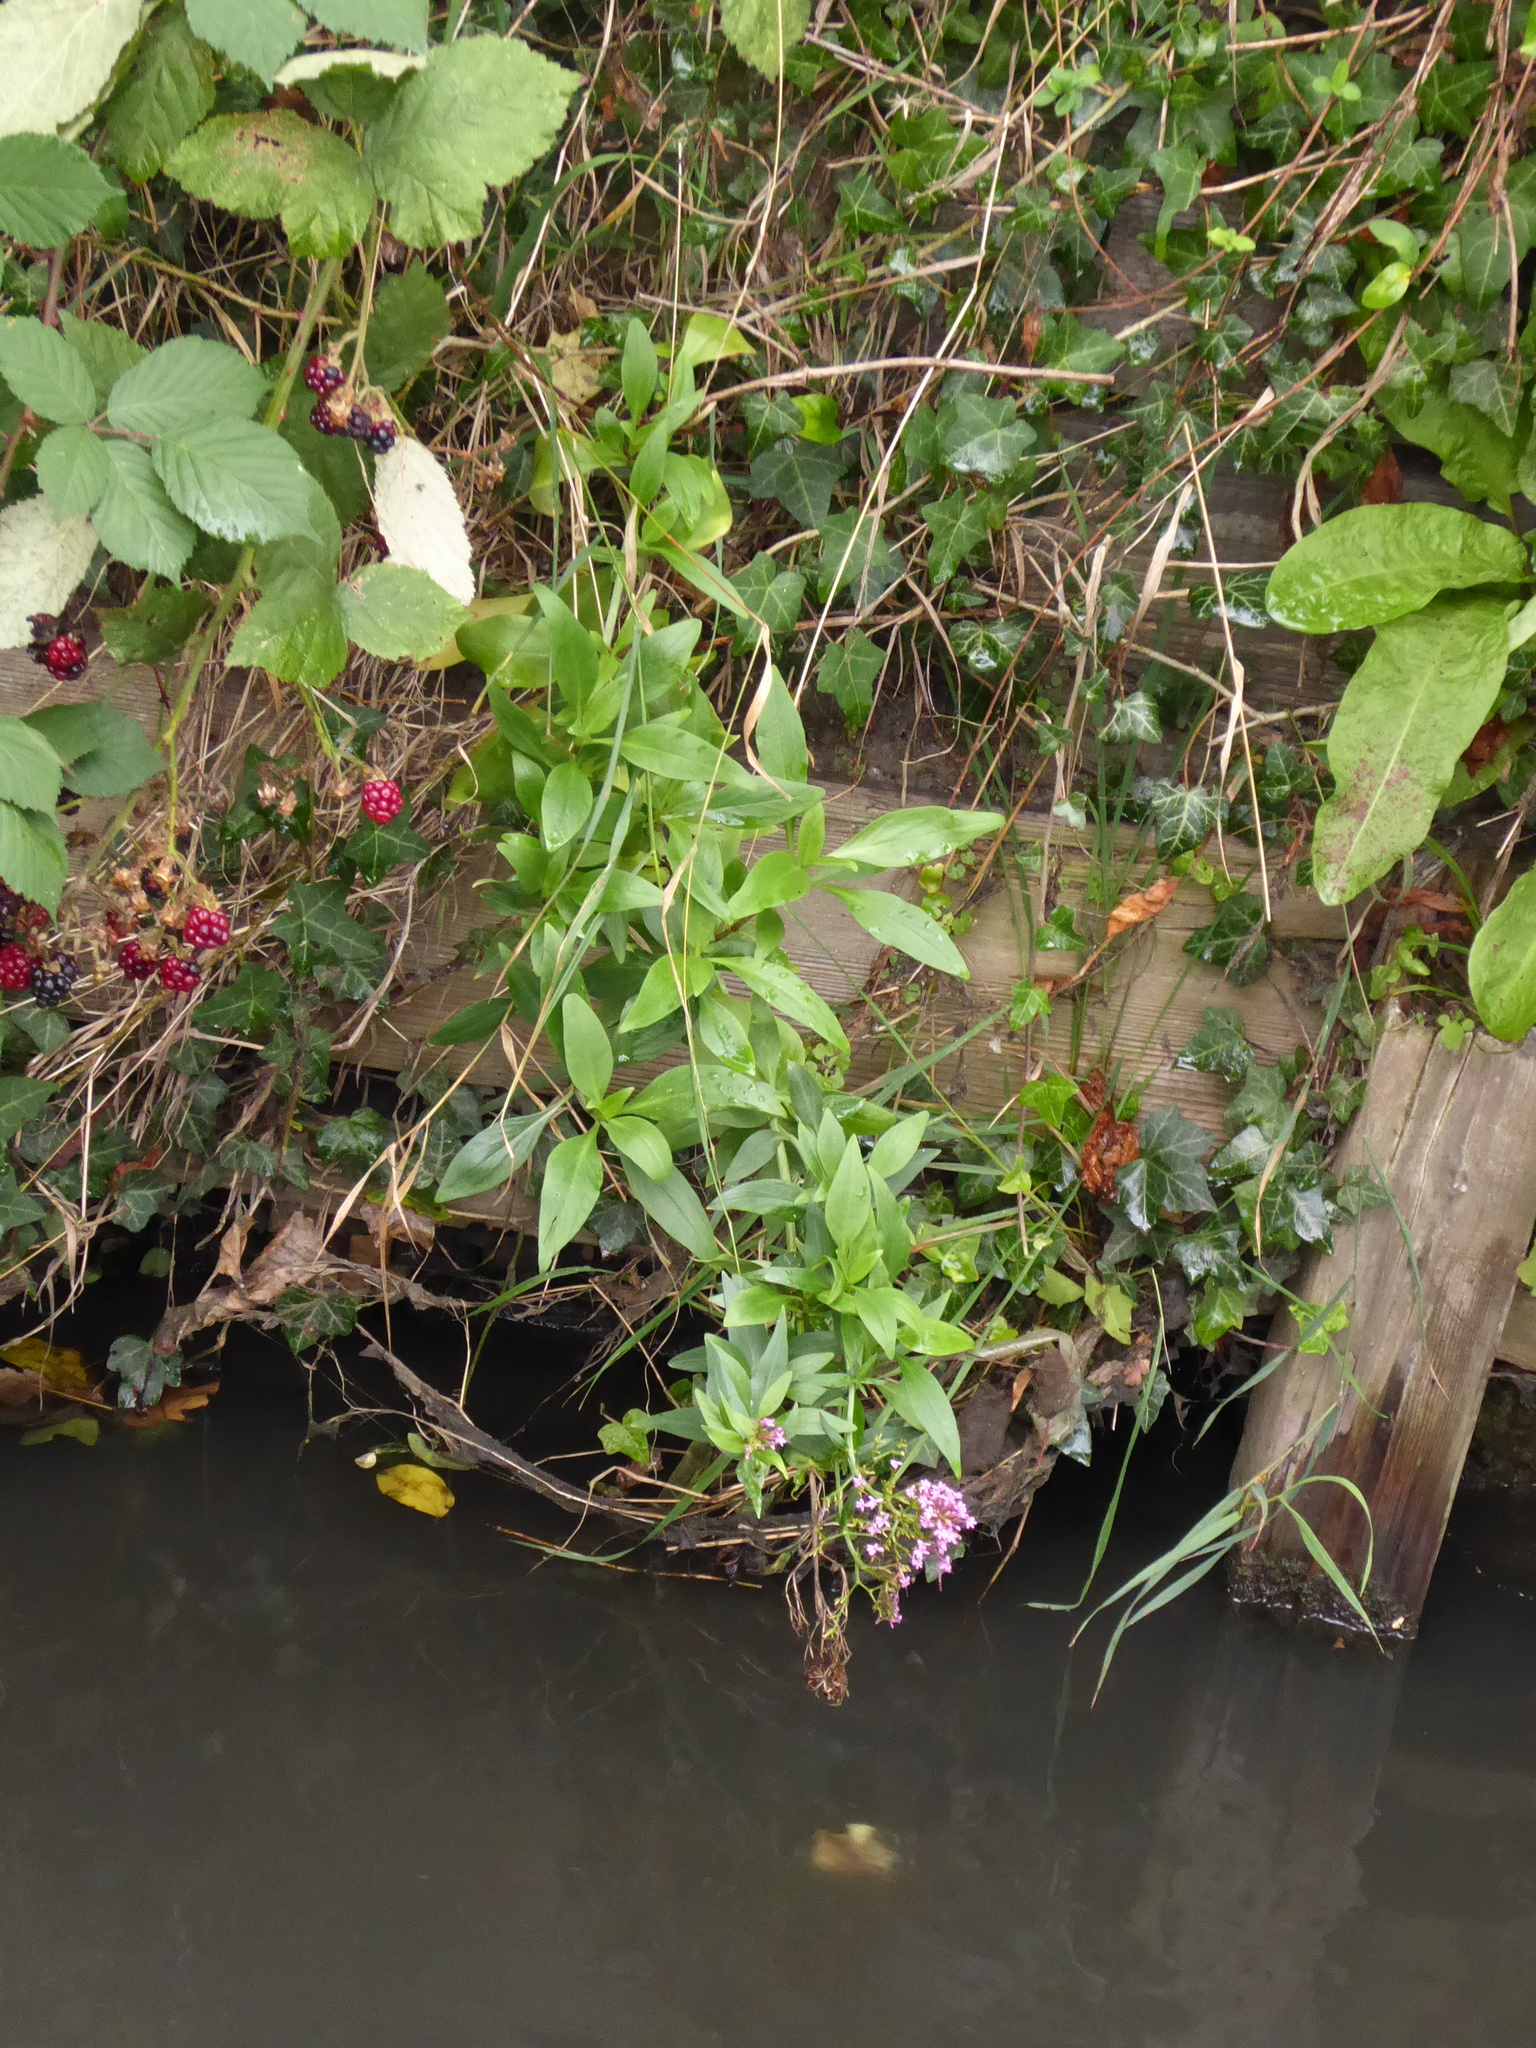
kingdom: Plantae
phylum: Tracheophyta
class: Magnoliopsida
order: Dipsacales
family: Caprifoliaceae
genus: Centranthus
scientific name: Centranthus ruber
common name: Red valerian
